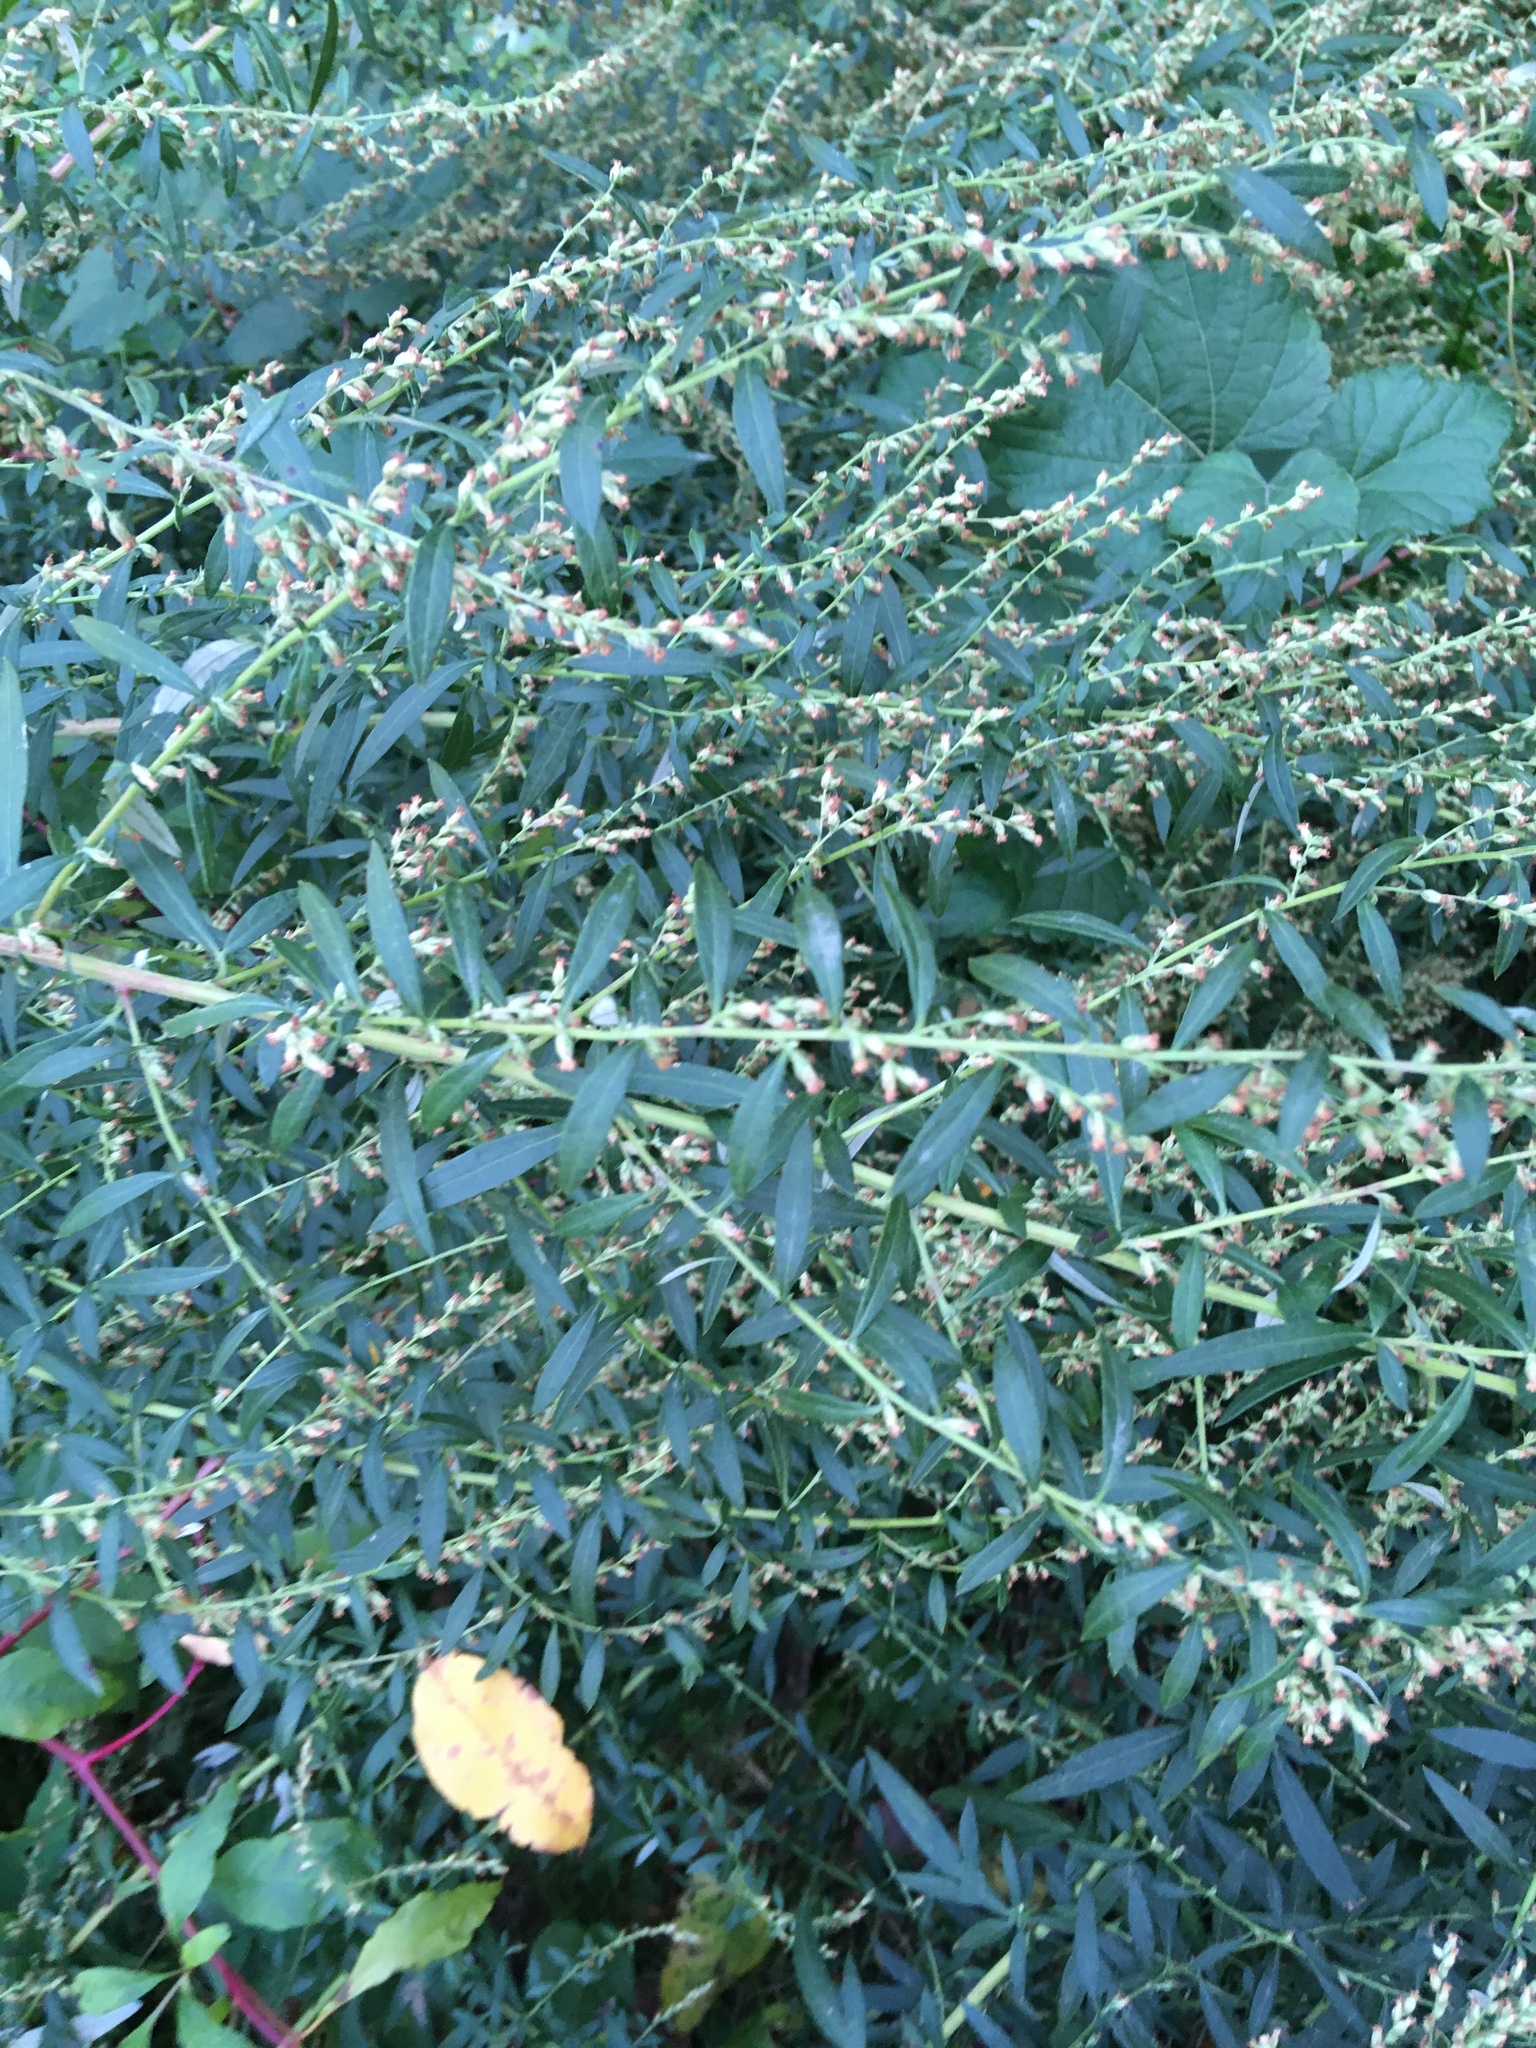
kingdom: Plantae
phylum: Tracheophyta
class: Magnoliopsida
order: Asterales
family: Asteraceae
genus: Artemisia
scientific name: Artemisia vulgaris
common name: Mugwort
